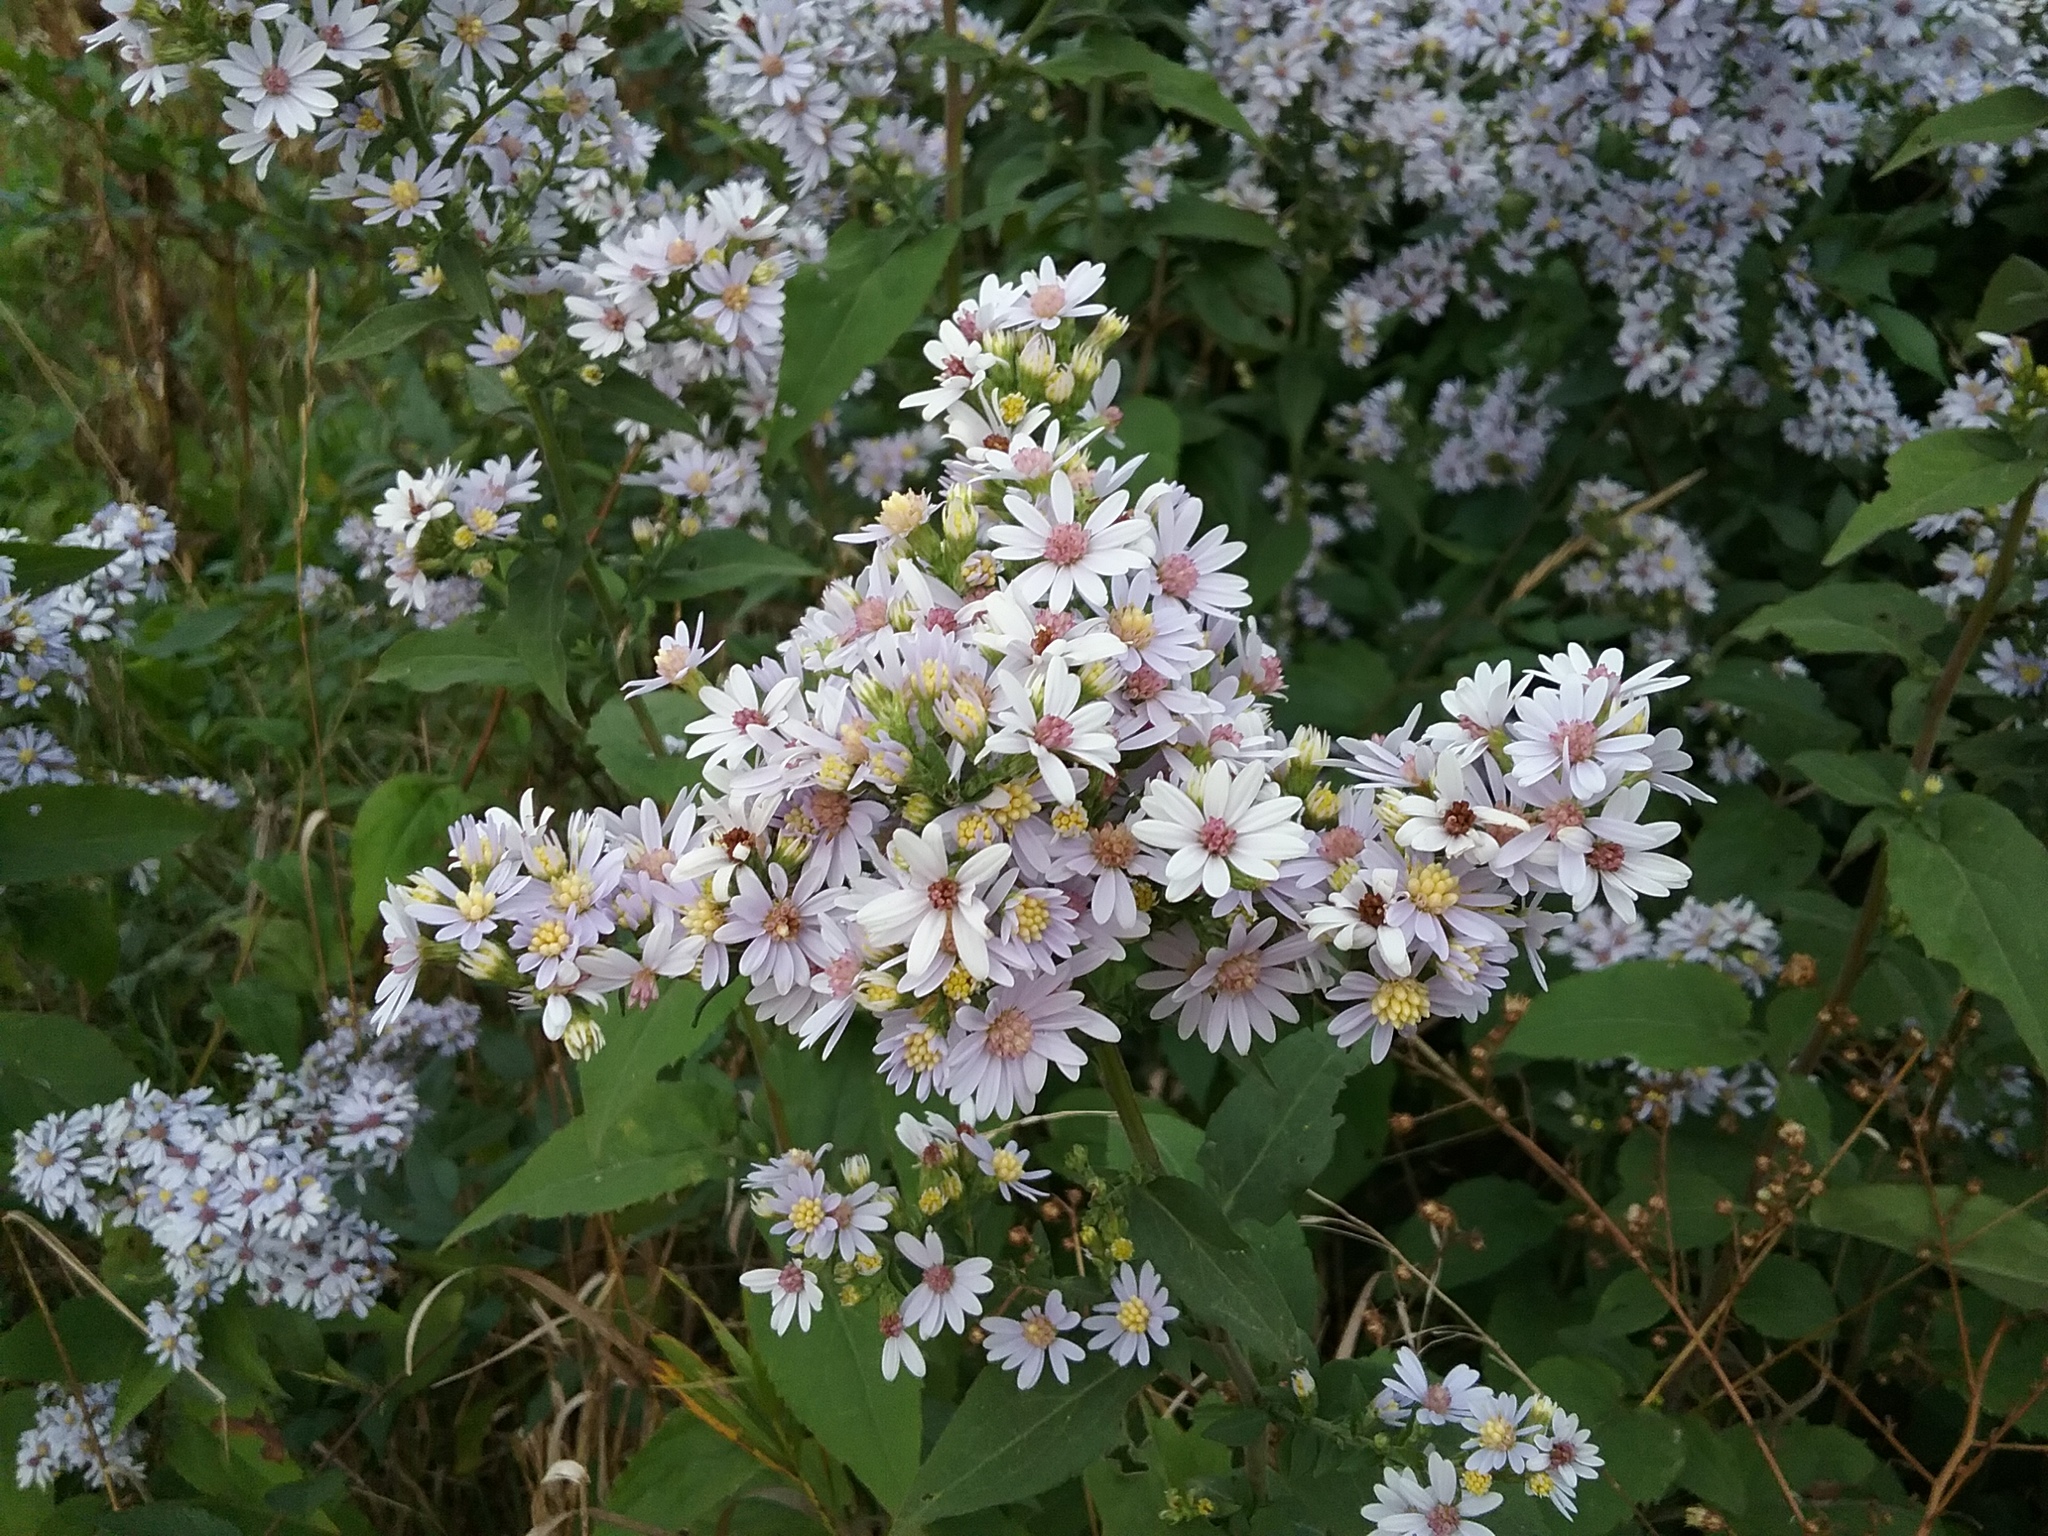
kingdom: Plantae
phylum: Tracheophyta
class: Magnoliopsida
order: Asterales
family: Asteraceae
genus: Symphyotrichum
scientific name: Symphyotrichum drummondii
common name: Drummond's aster
